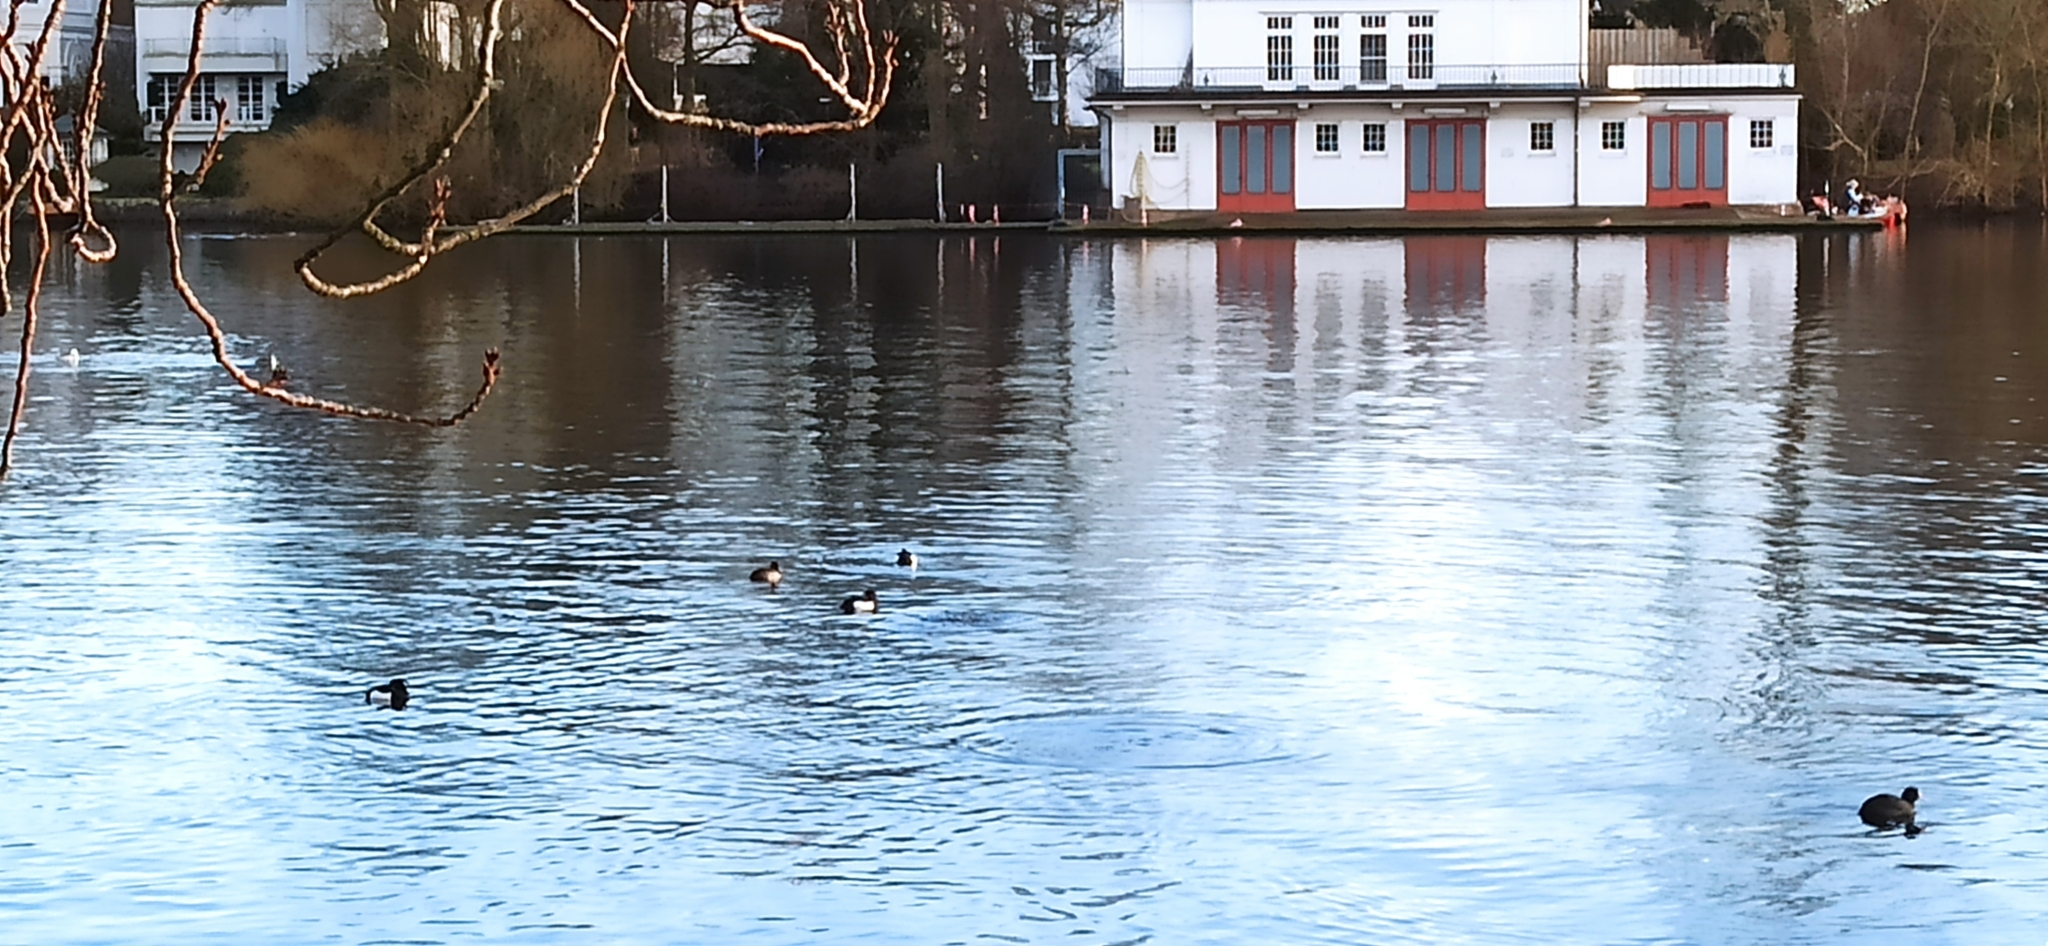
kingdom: Animalia
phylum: Chordata
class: Aves
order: Anseriformes
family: Anatidae
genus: Aythya
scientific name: Aythya fuligula
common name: Tufted duck
